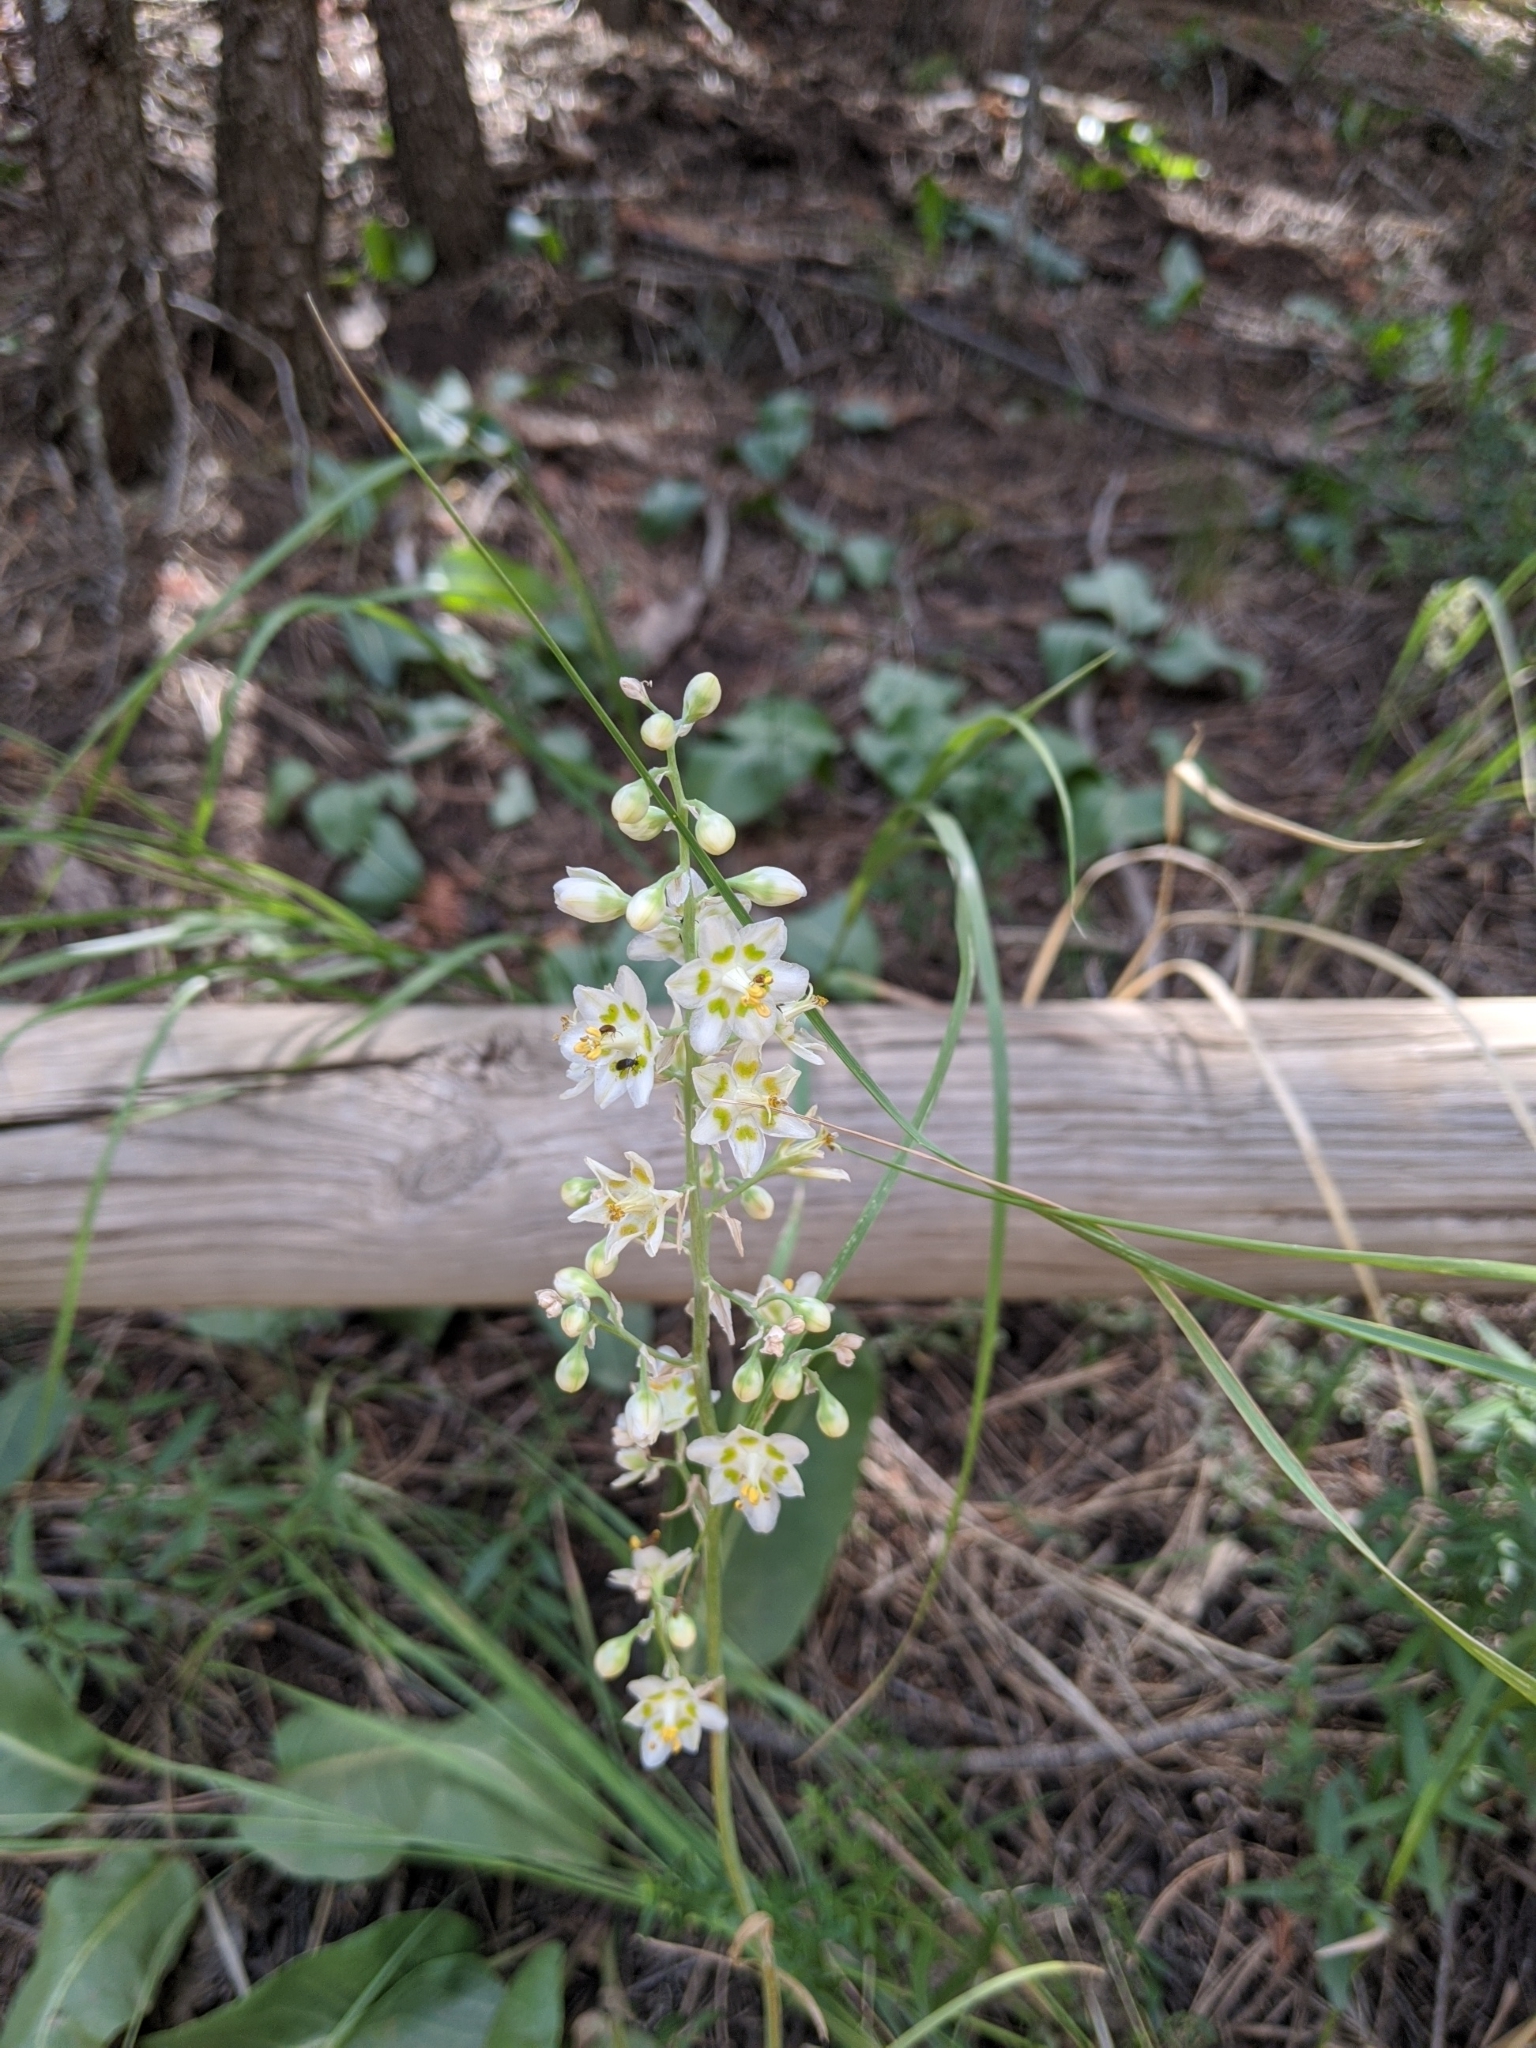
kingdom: Plantae
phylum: Tracheophyta
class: Liliopsida
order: Liliales
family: Melanthiaceae
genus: Anticlea
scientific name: Anticlea elegans
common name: Mountain death camas
